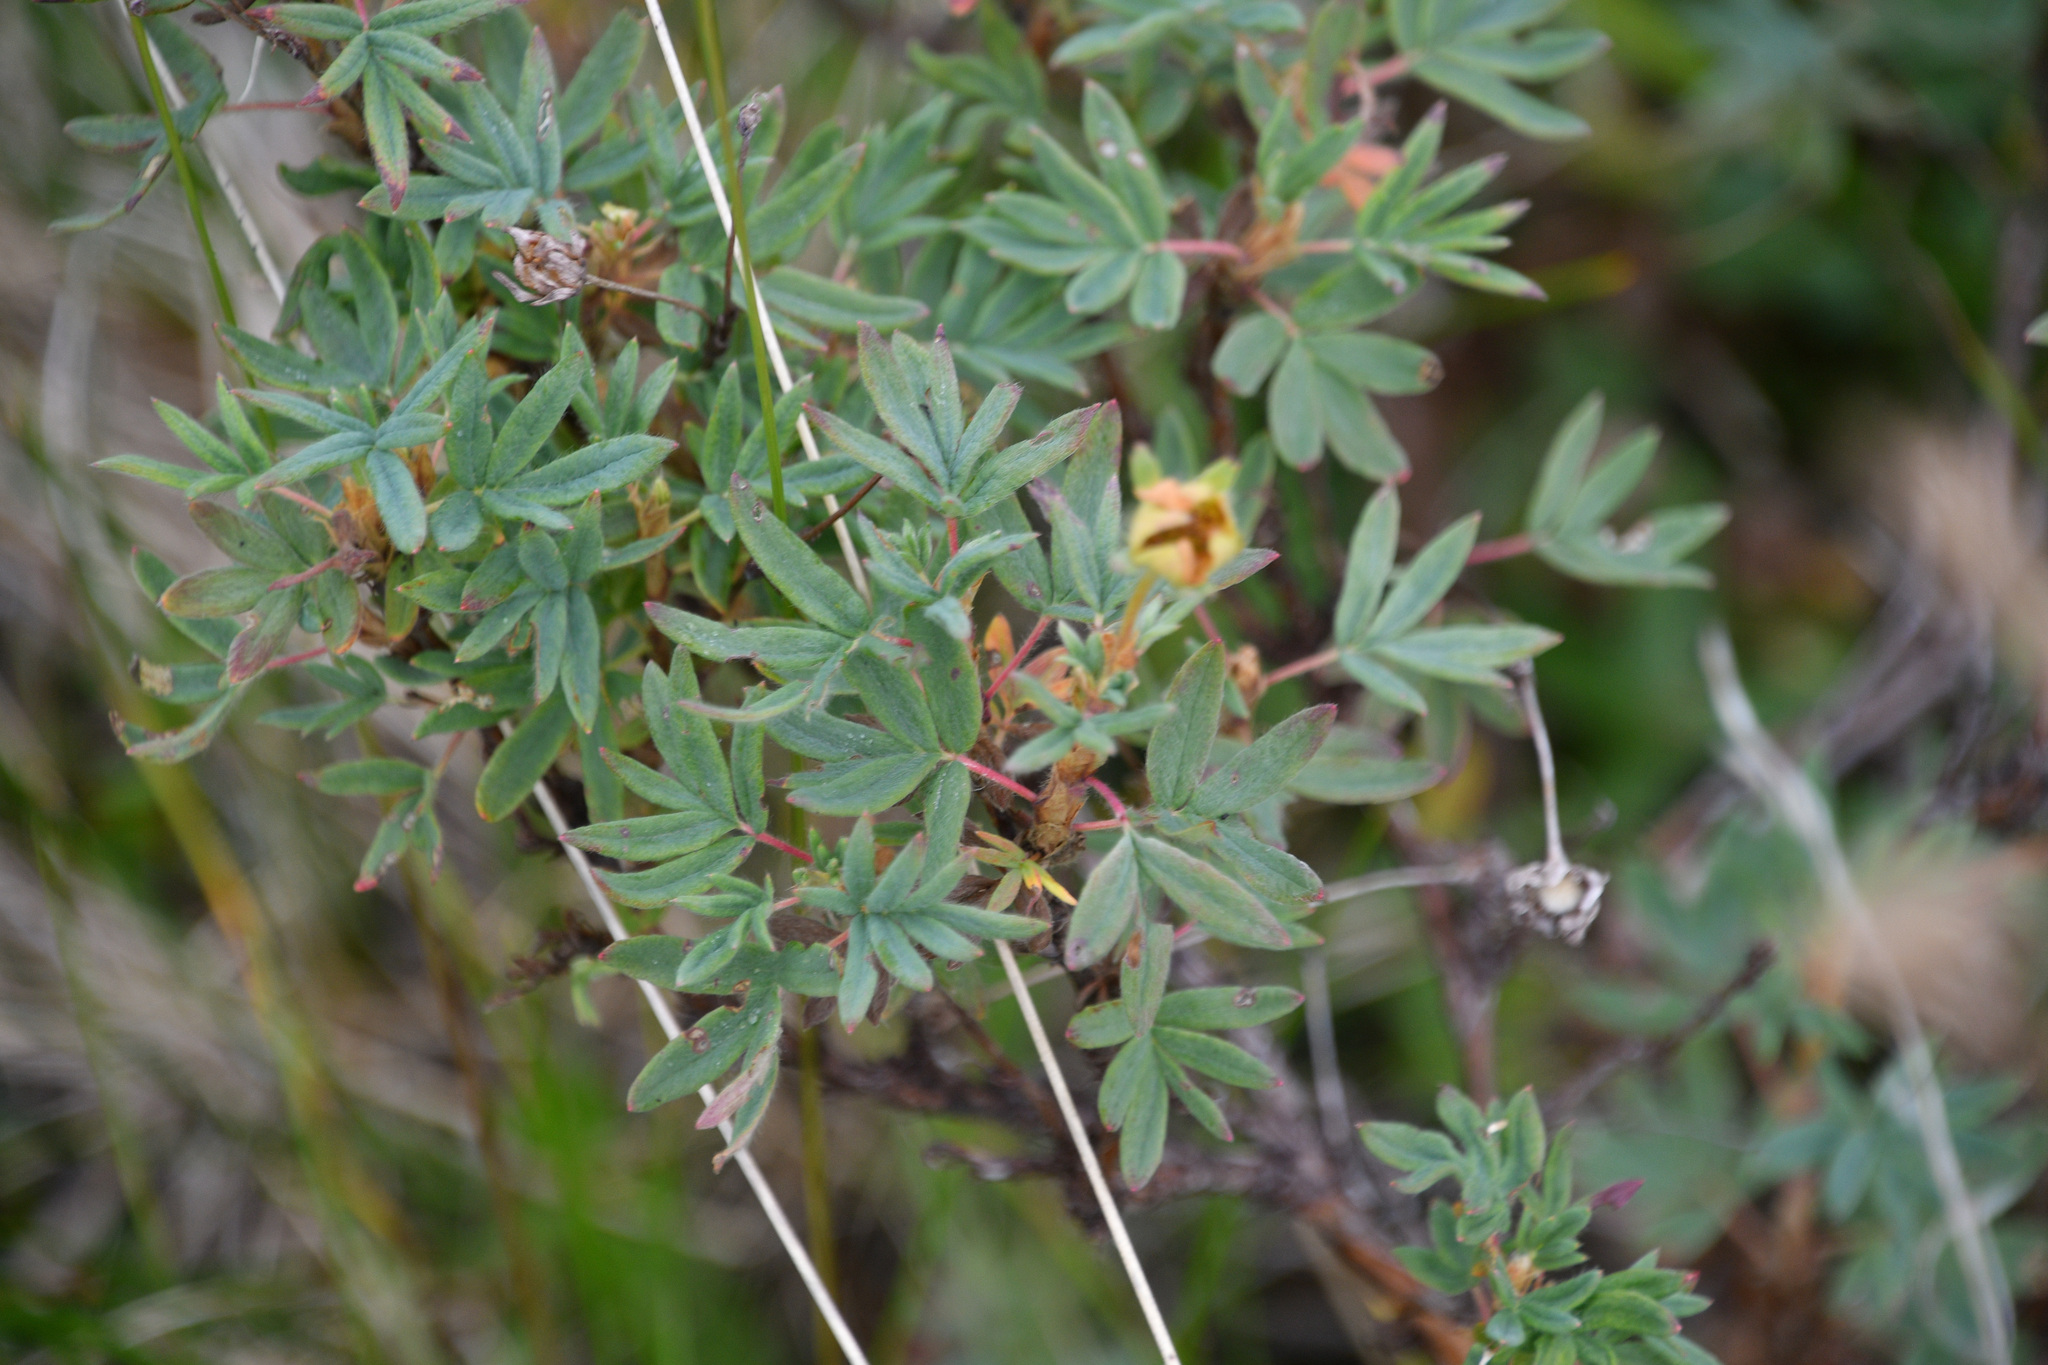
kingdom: Plantae
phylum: Tracheophyta
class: Magnoliopsida
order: Rosales
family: Rosaceae
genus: Dasiphora
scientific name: Dasiphora fruticosa
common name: Shrubby cinquefoil
